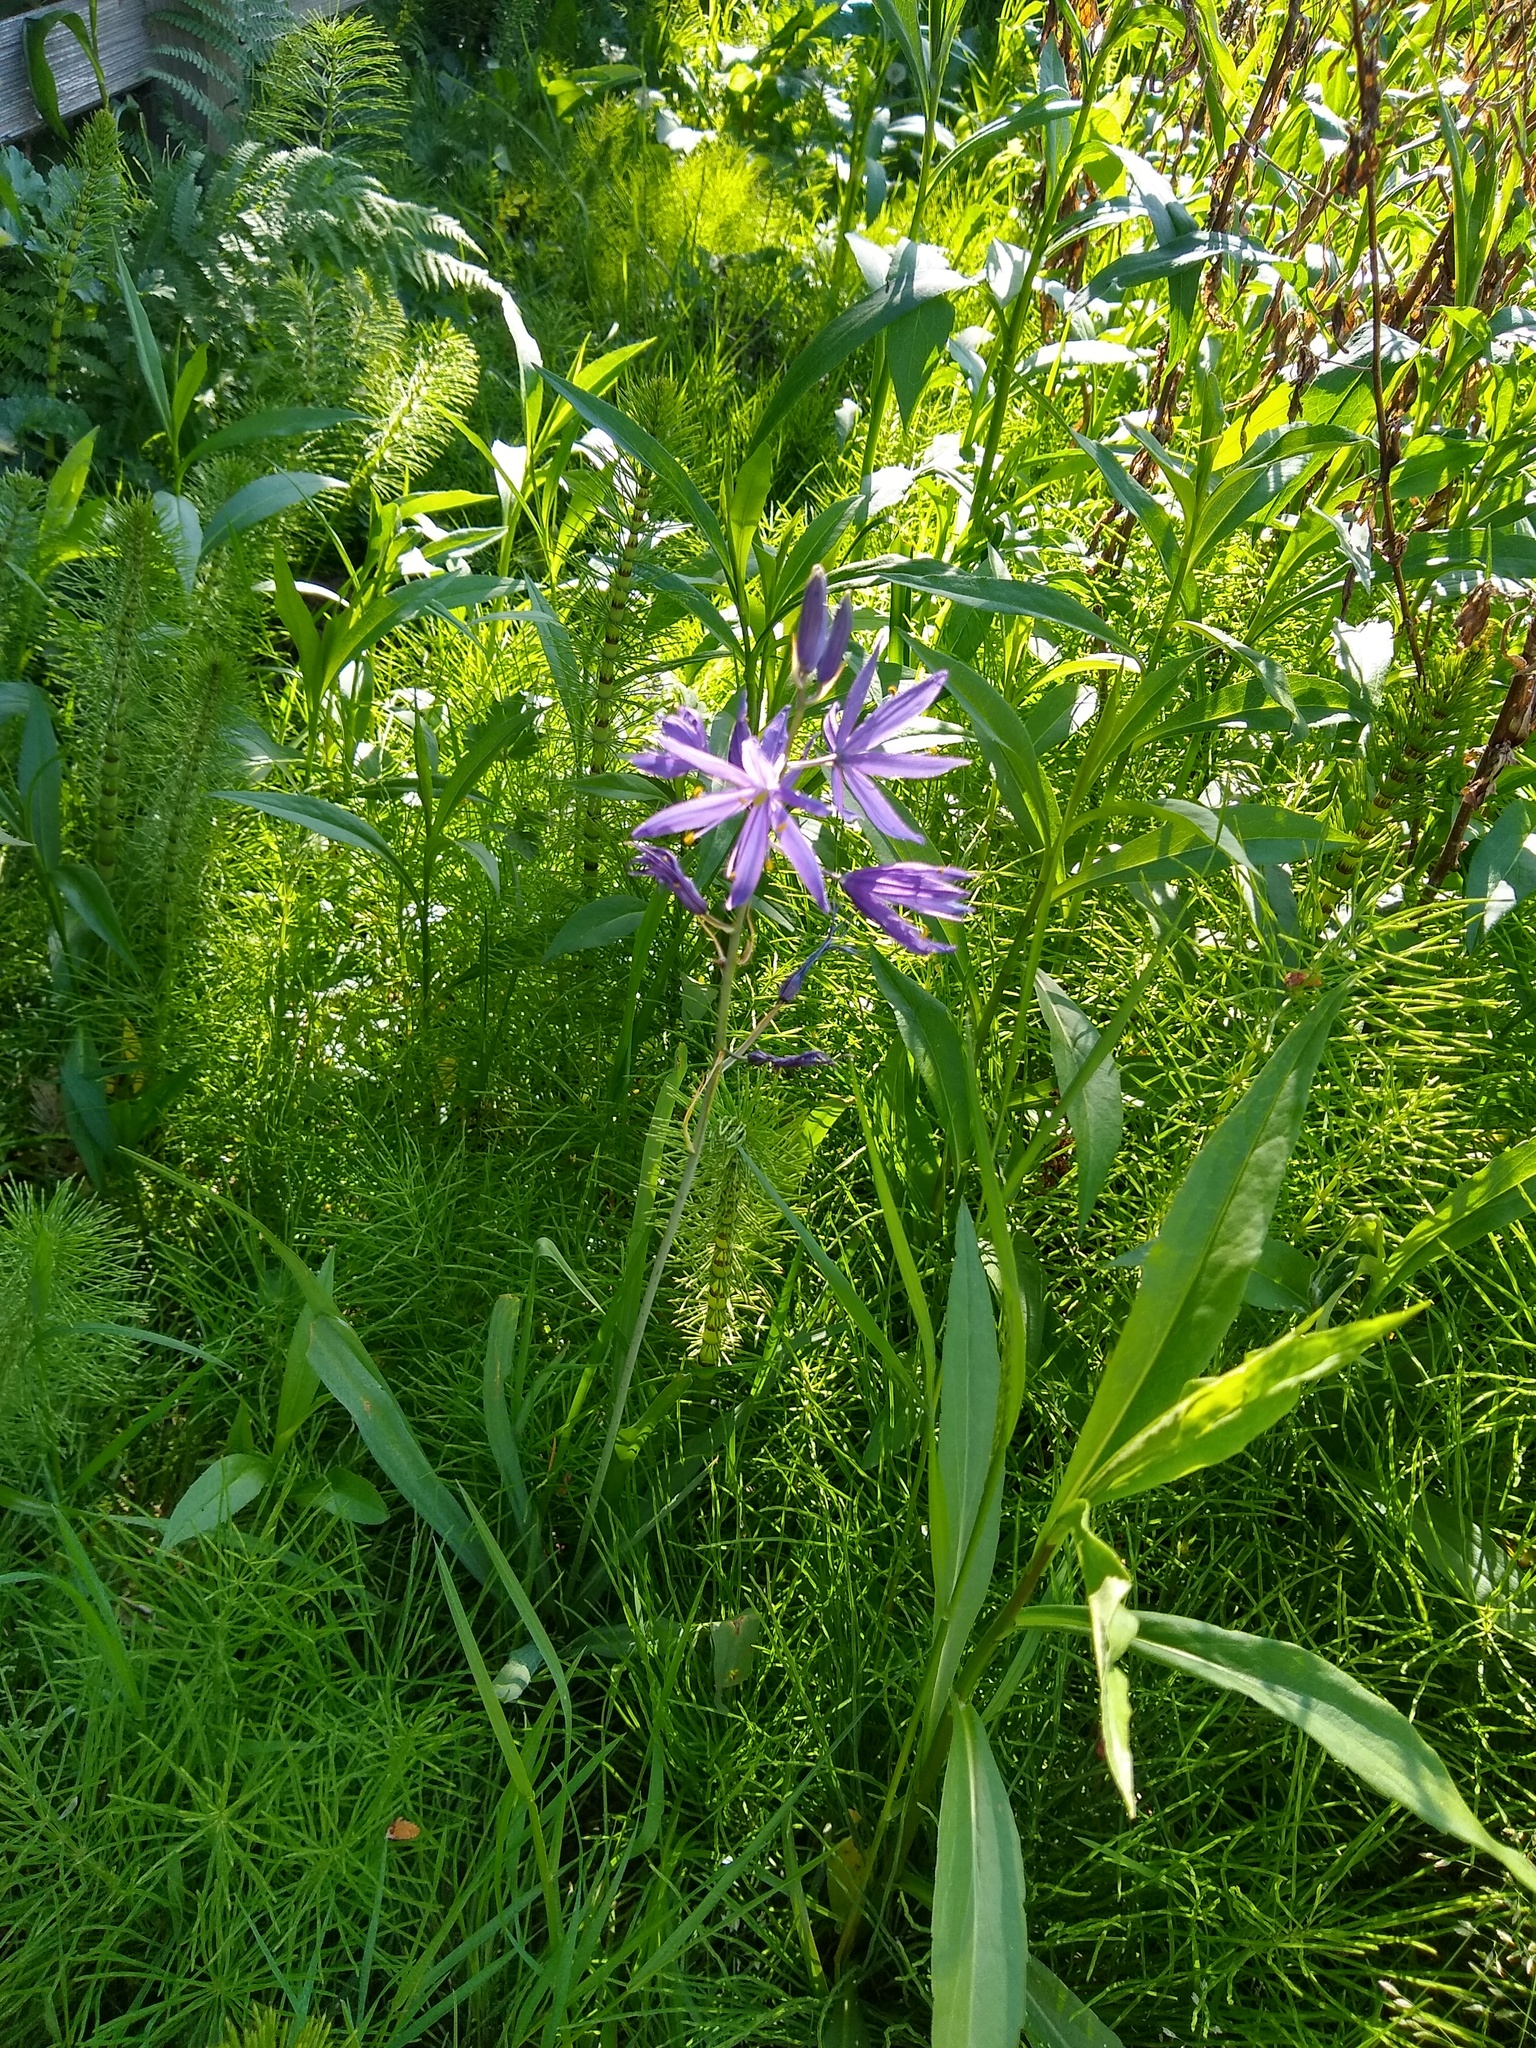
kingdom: Plantae
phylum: Tracheophyta
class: Liliopsida
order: Asparagales
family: Asparagaceae
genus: Camassia
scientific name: Camassia quamash
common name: Common camas
